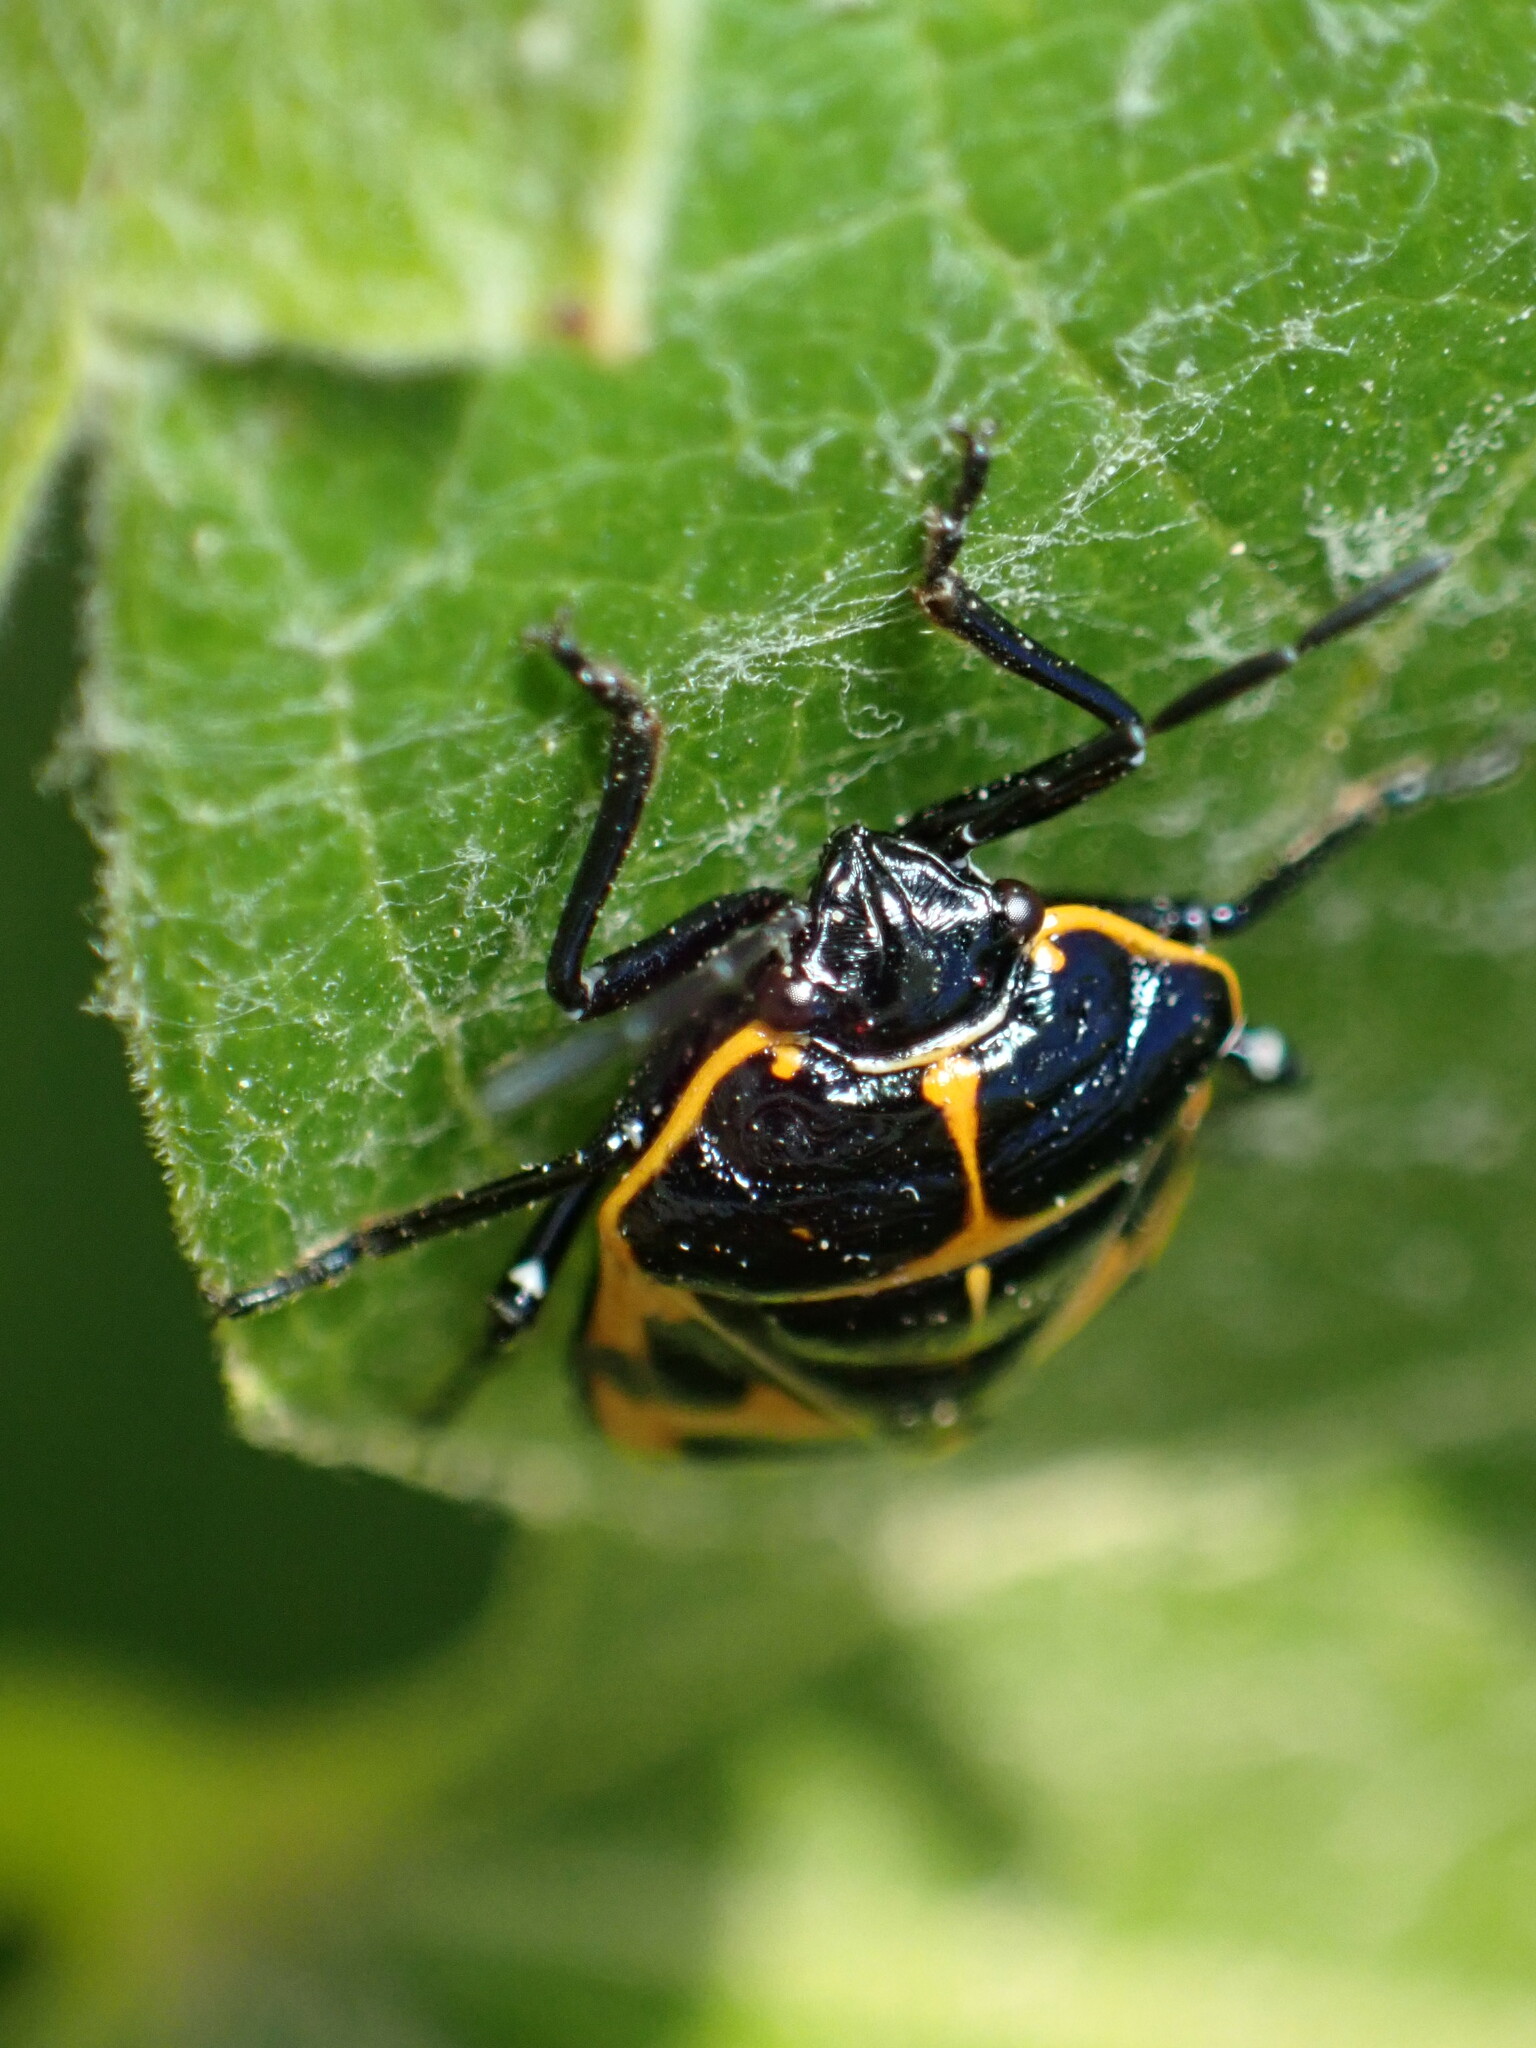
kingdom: Animalia
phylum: Arthropoda
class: Insecta
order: Hemiptera
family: Pentatomidae
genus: Murgantia
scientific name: Murgantia histrionica
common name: Harlequin bug
